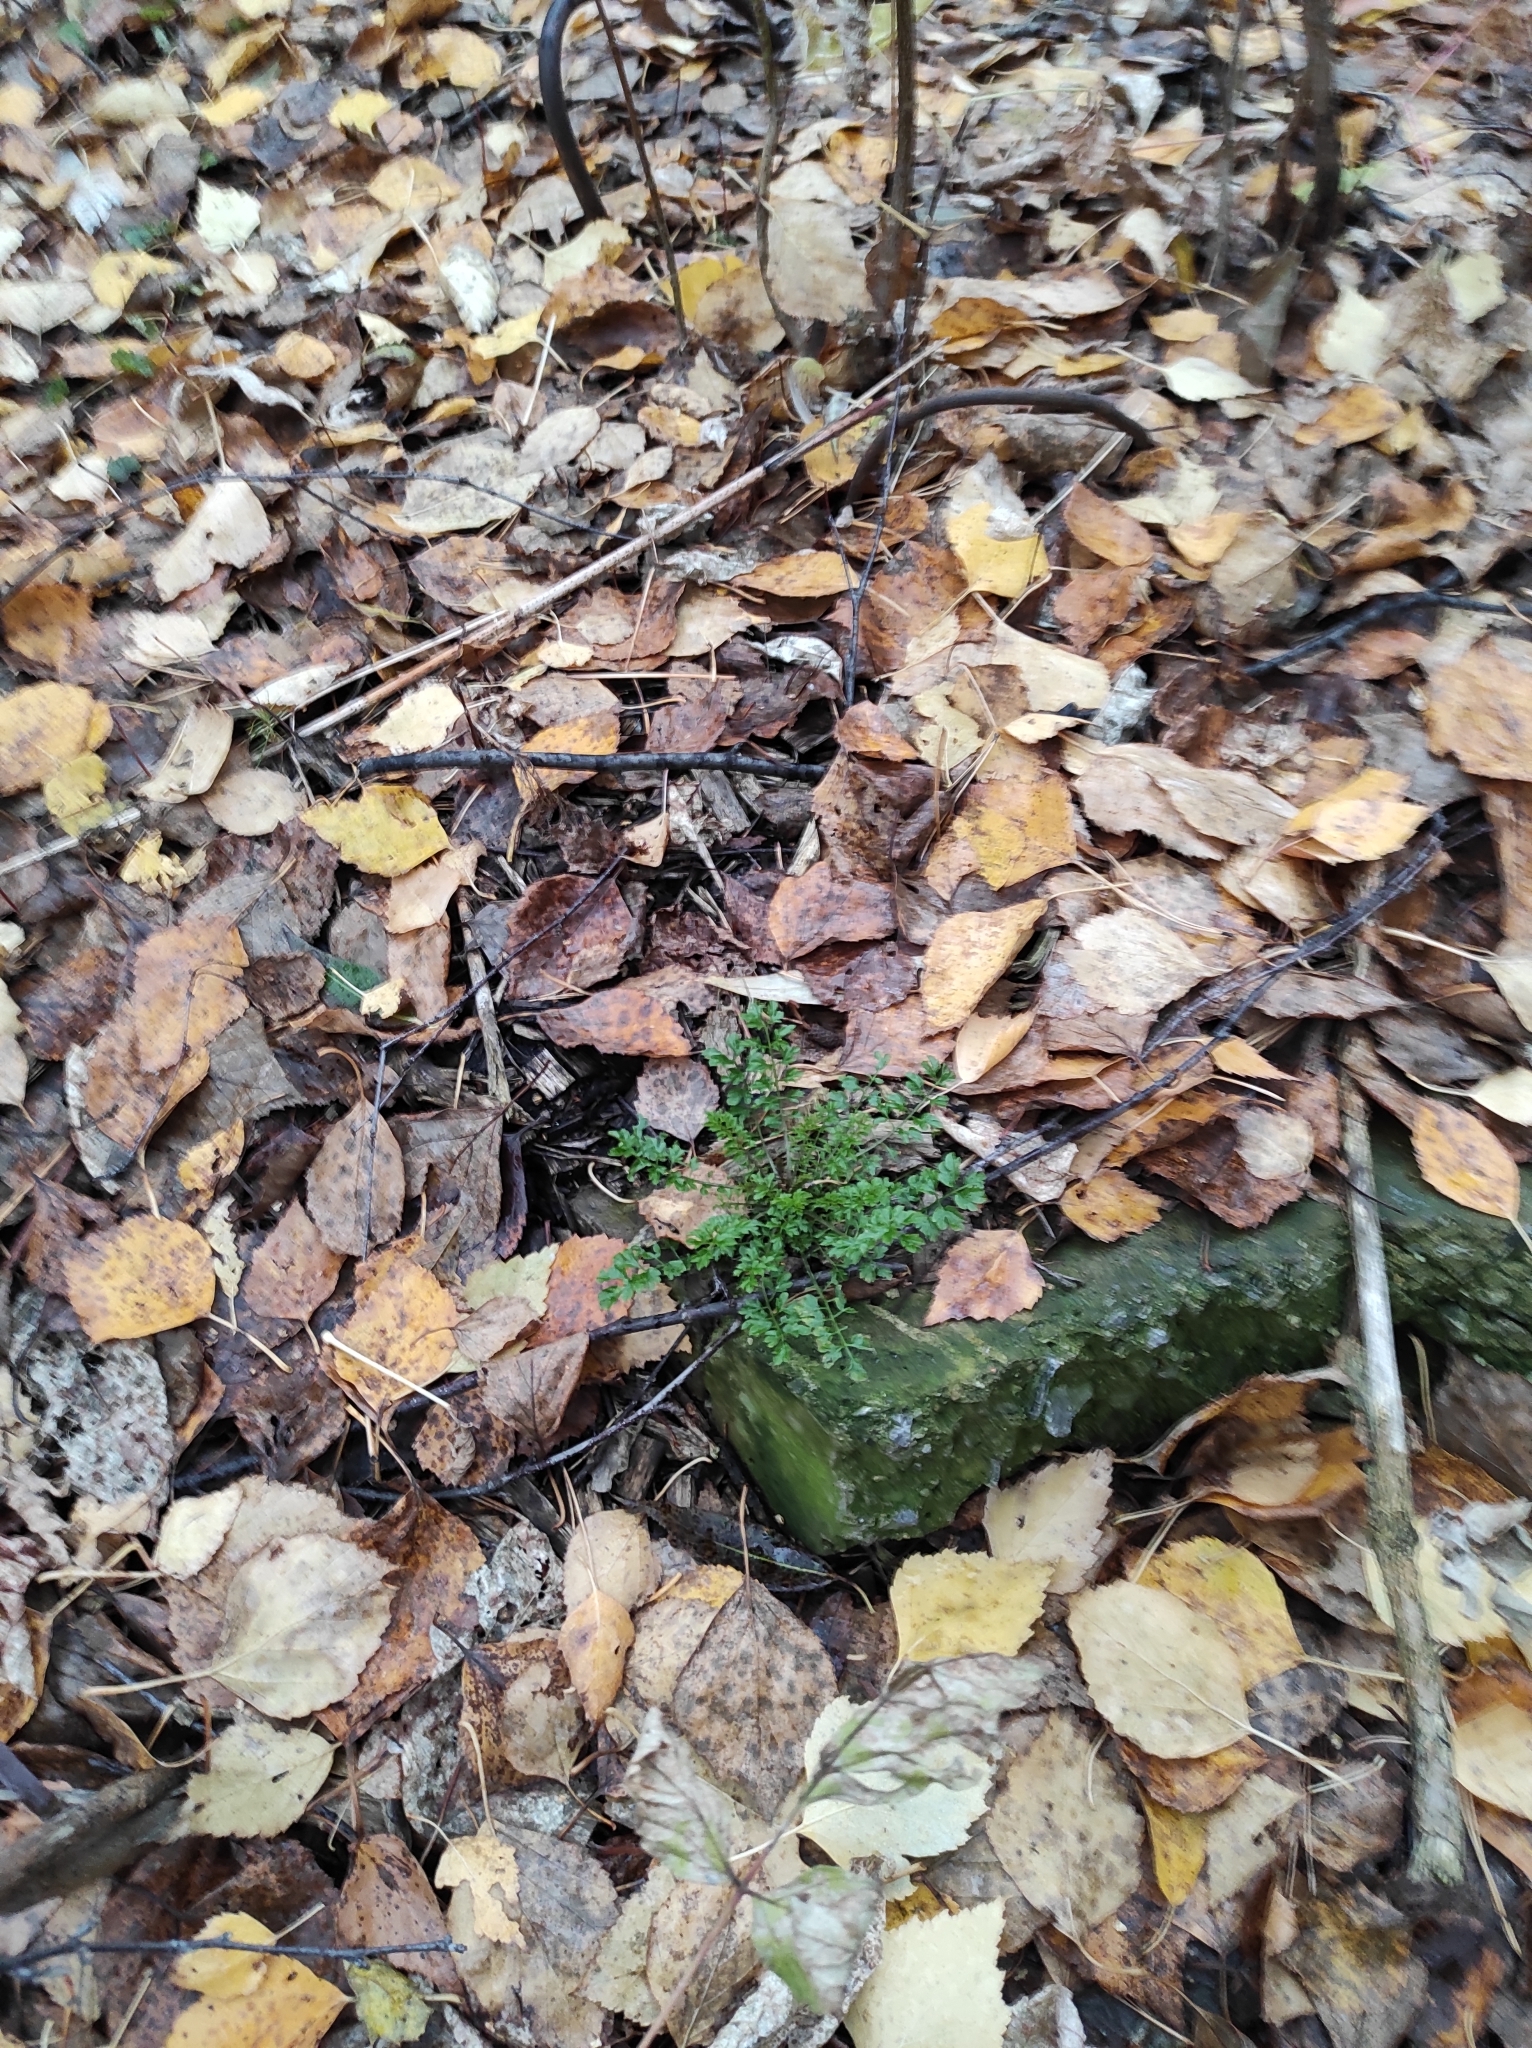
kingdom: Plantae
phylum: Tracheophyta
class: Magnoliopsida
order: Brassicales
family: Brassicaceae
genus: Cardamine
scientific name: Cardamine impatiens
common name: Narrow-leaved bitter-cress
